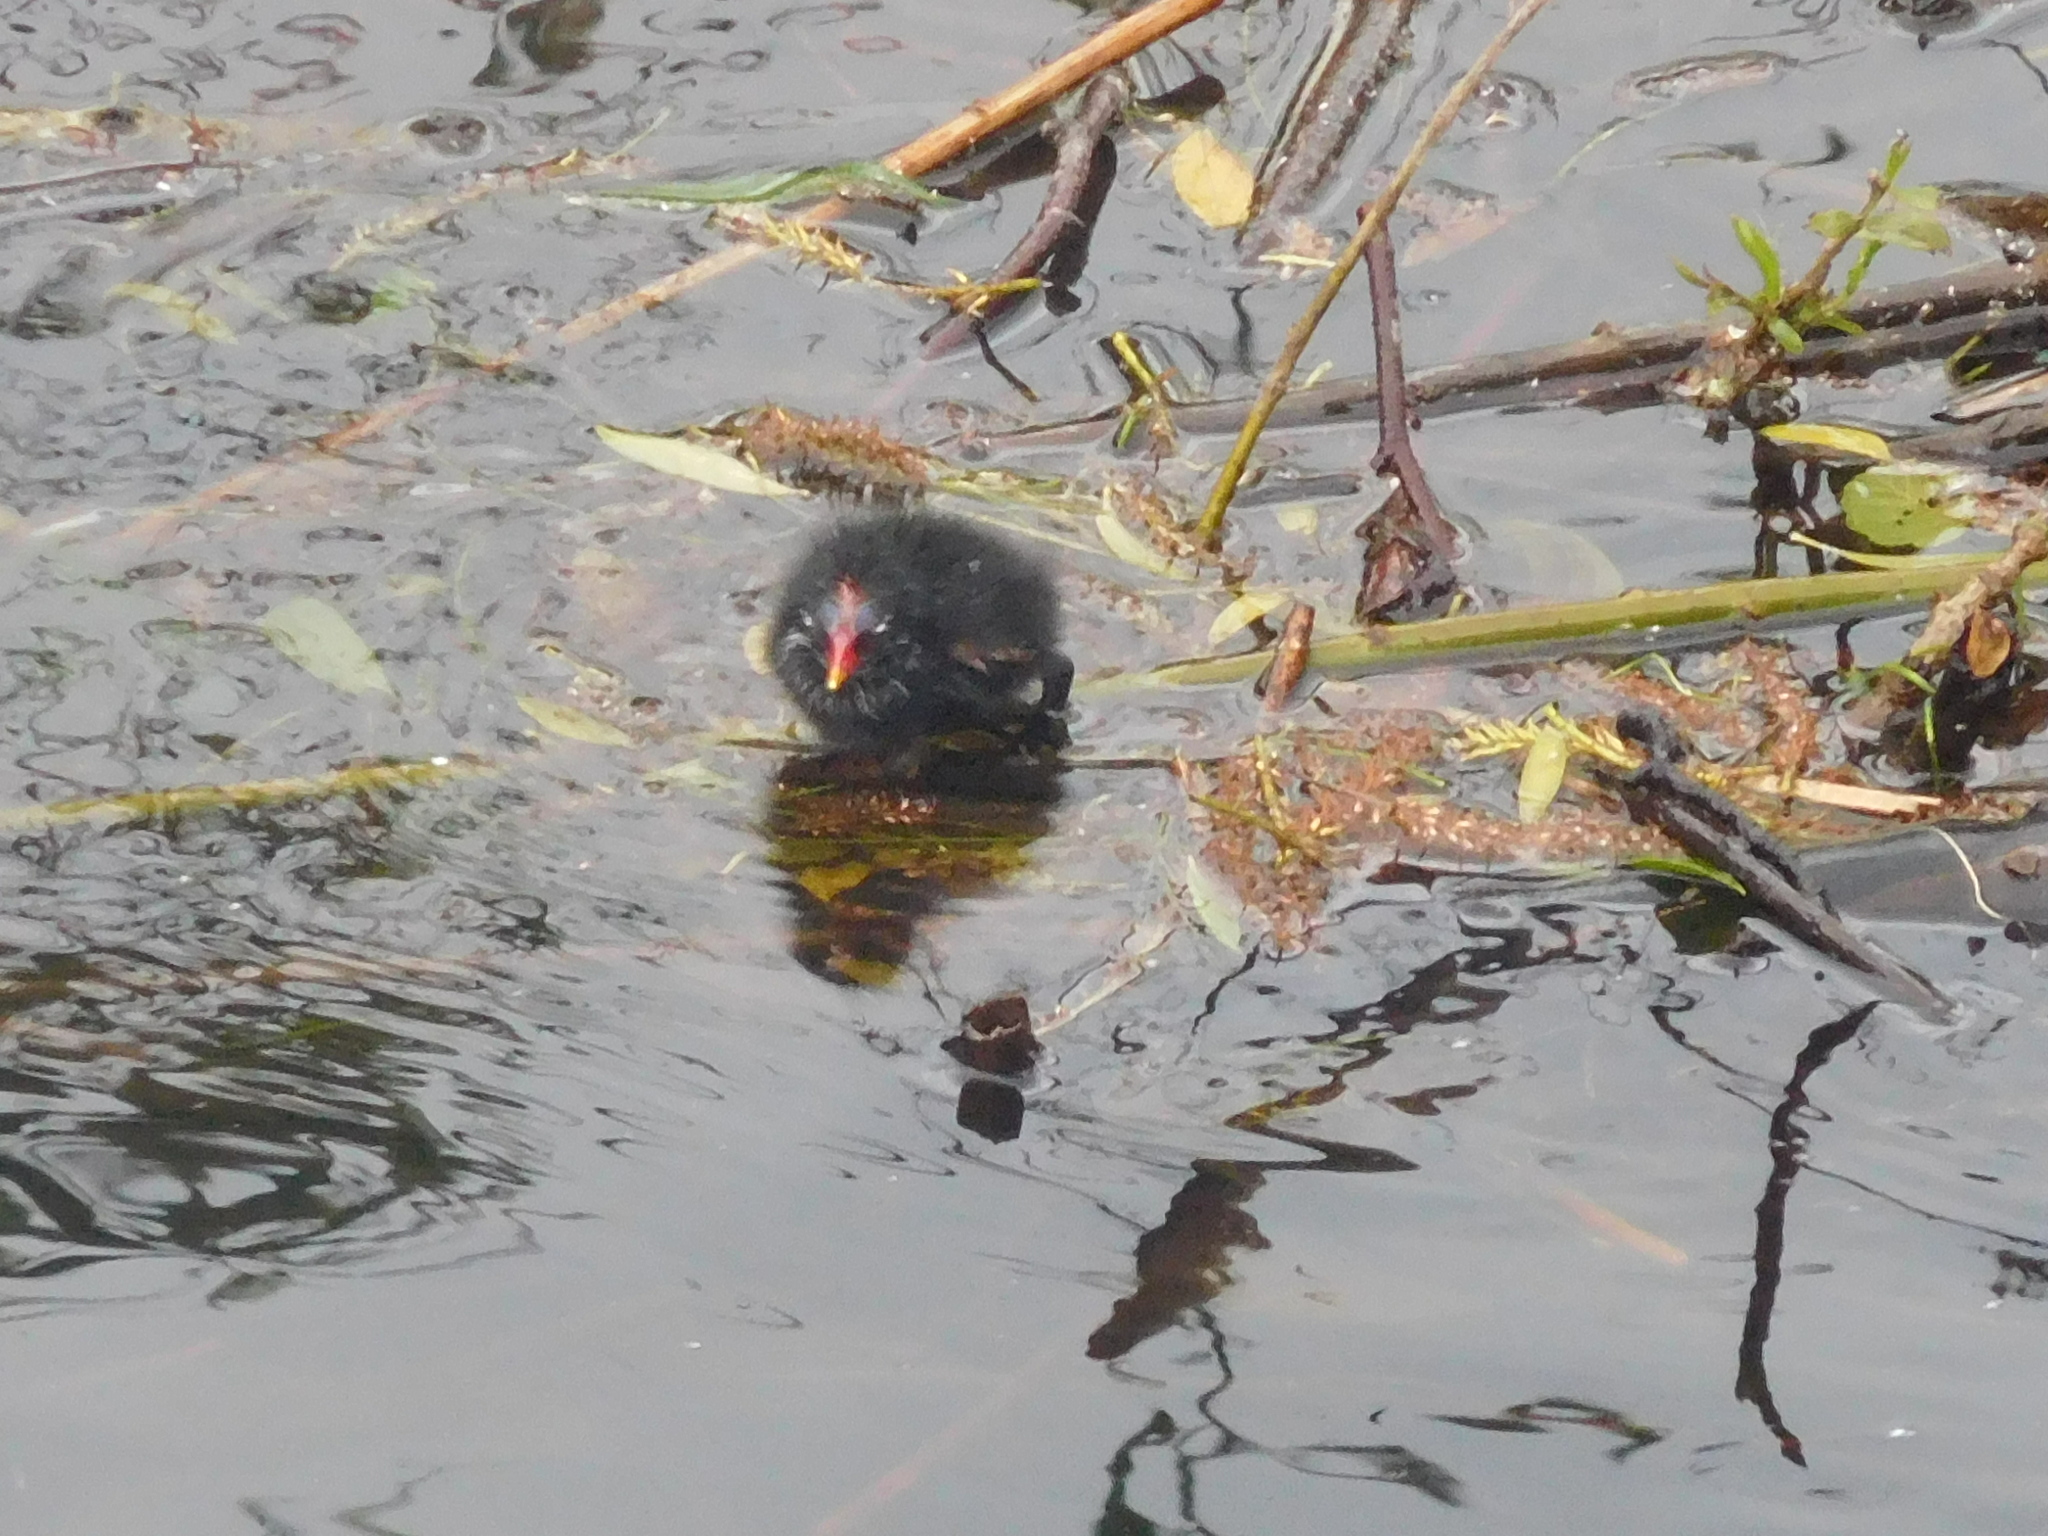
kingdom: Animalia
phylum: Chordata
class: Aves
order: Gruiformes
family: Rallidae
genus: Gallinula
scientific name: Gallinula chloropus
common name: Common moorhen
